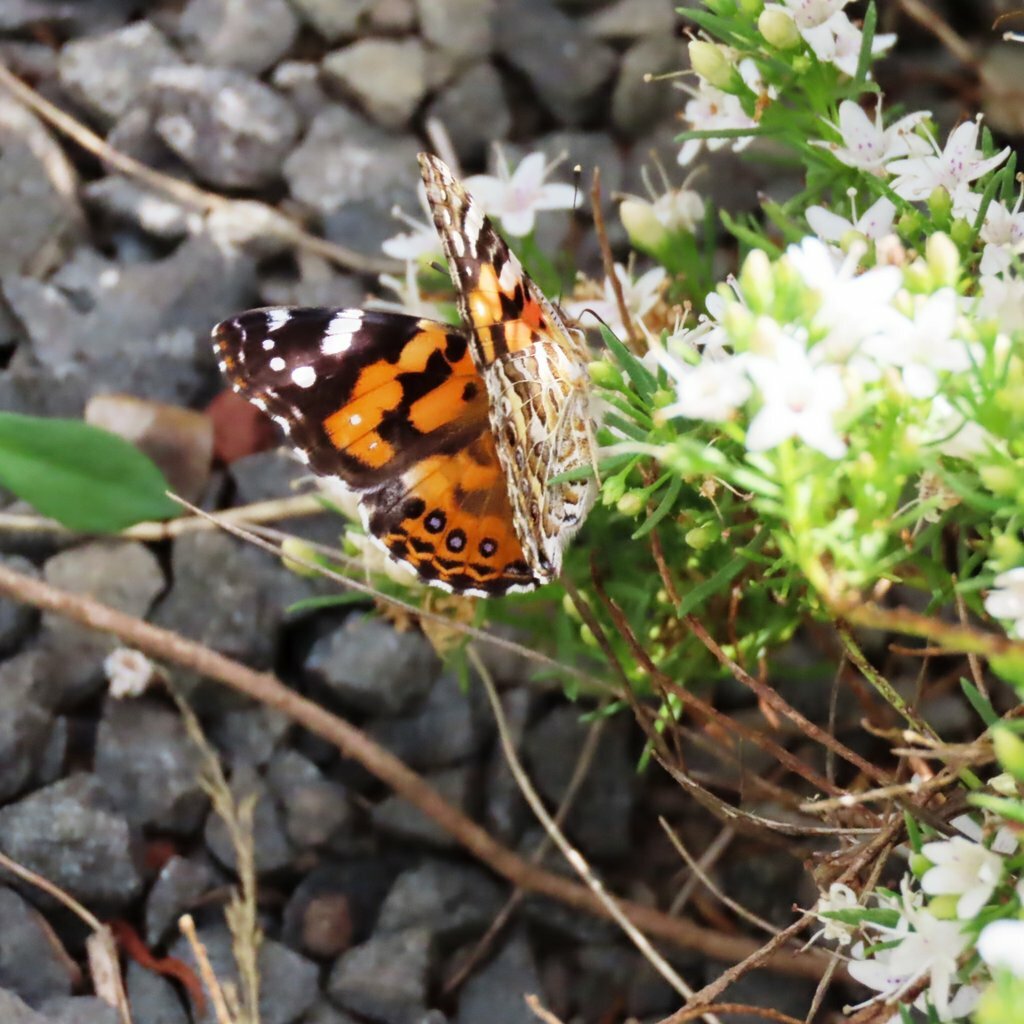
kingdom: Animalia
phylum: Arthropoda
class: Insecta
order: Lepidoptera
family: Nymphalidae
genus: Vanessa
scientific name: Vanessa kershawi
